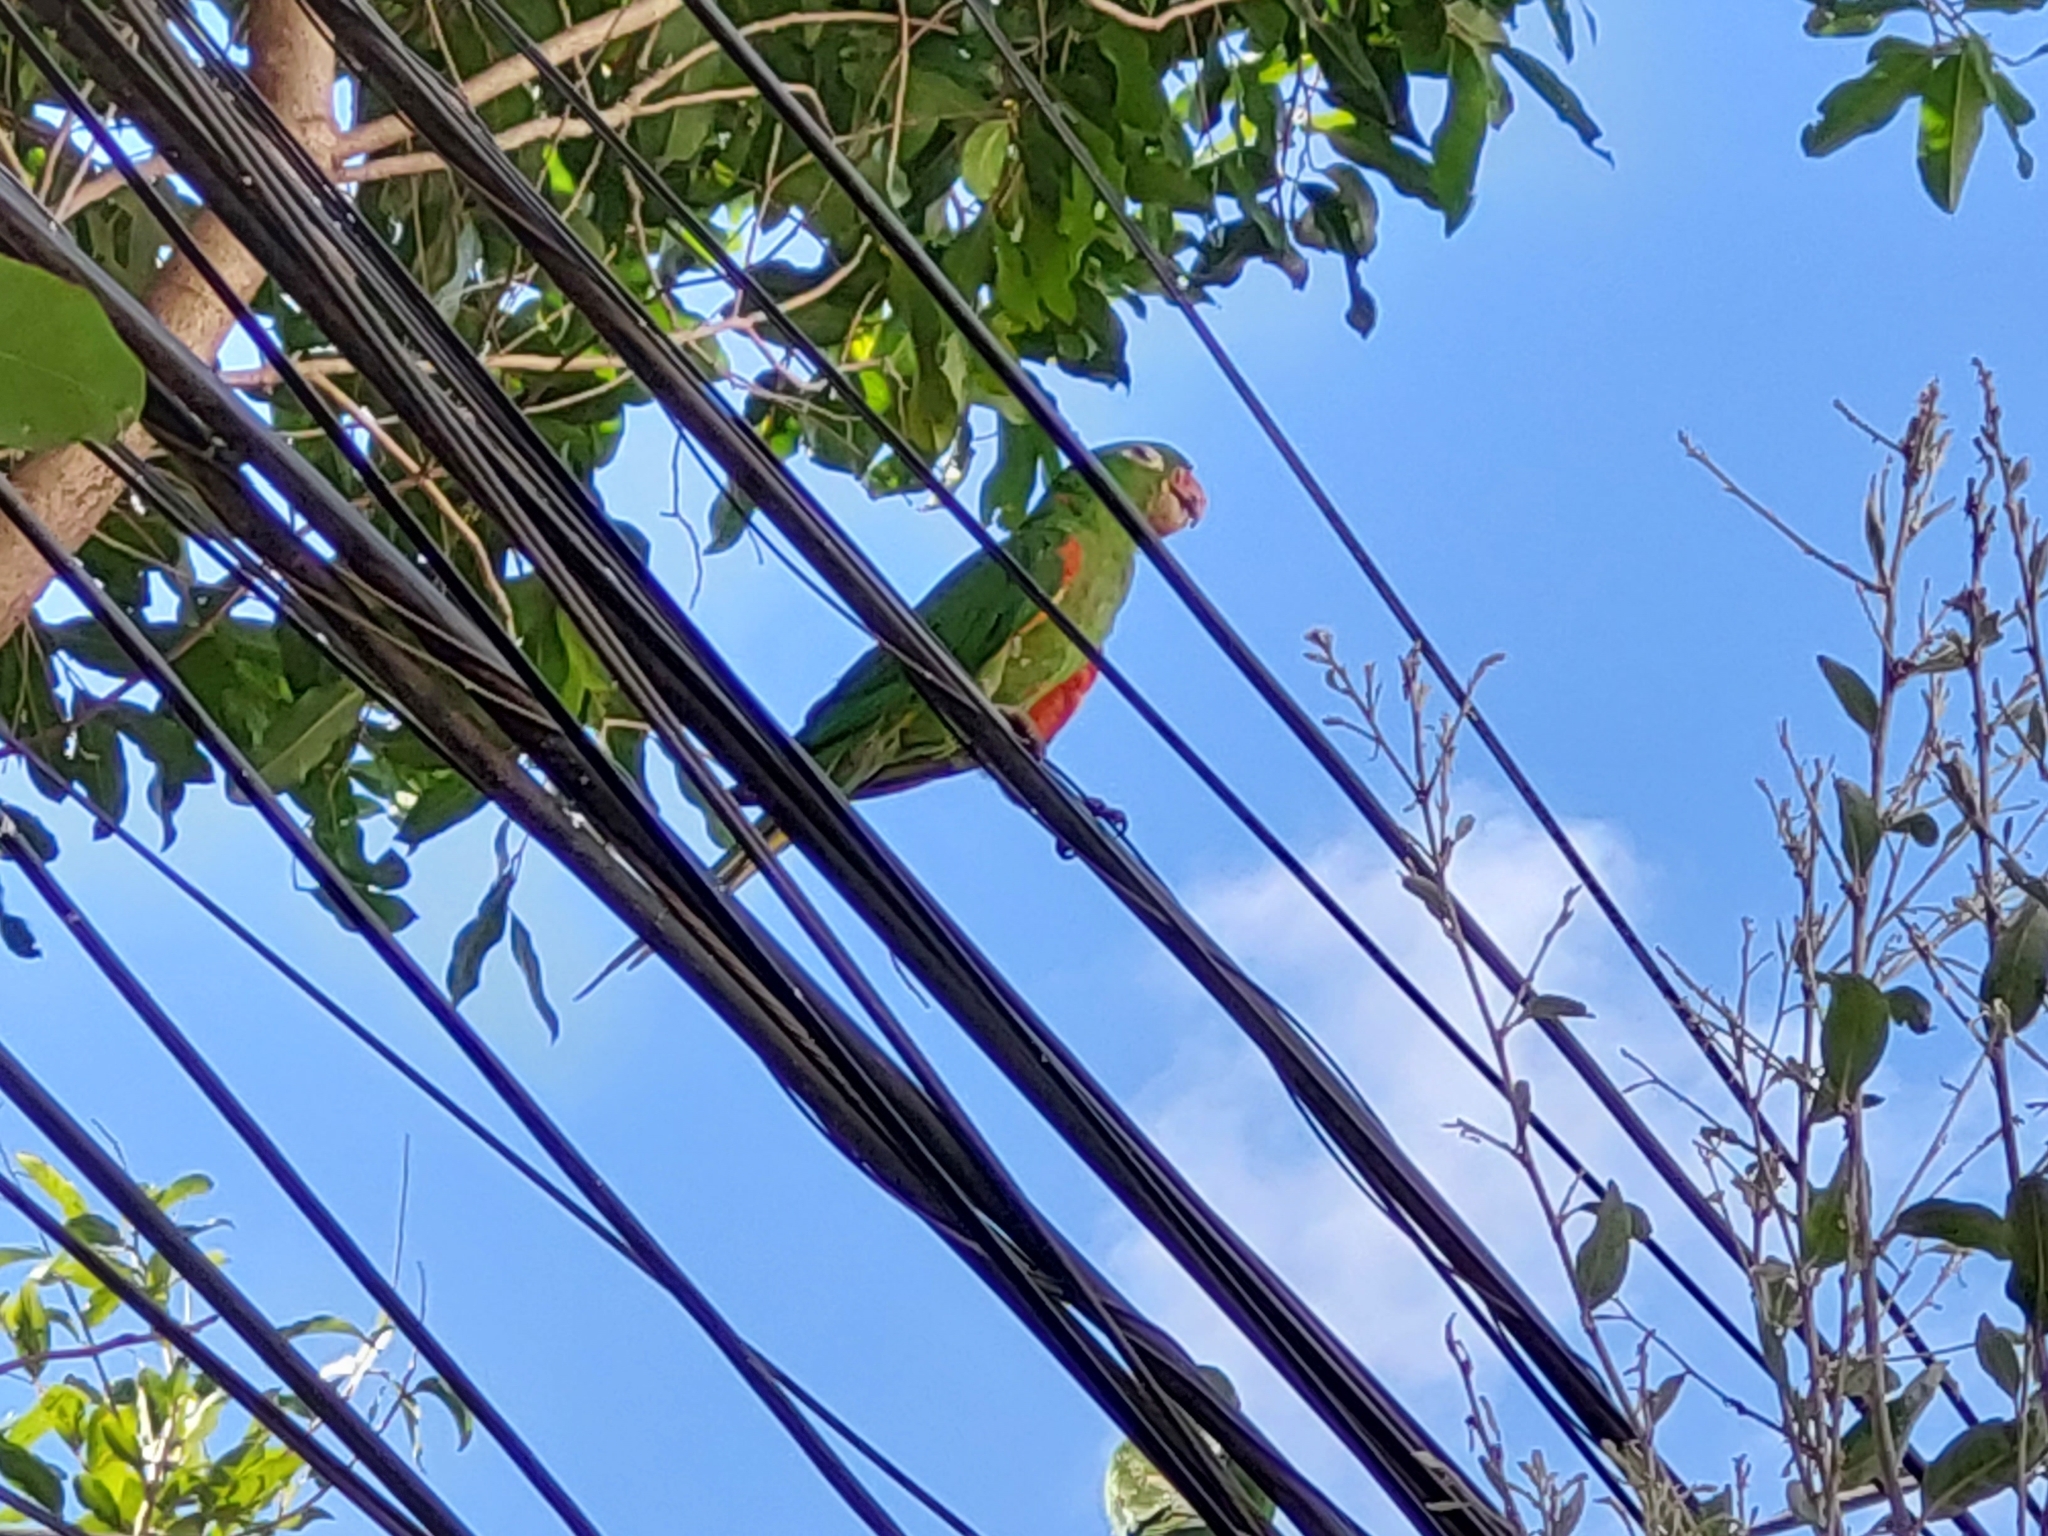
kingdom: Animalia
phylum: Chordata
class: Aves
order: Psittaciformes
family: Psittacidae
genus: Aratinga
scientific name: Aratinga leucophthalma
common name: White-eyed parakeet
